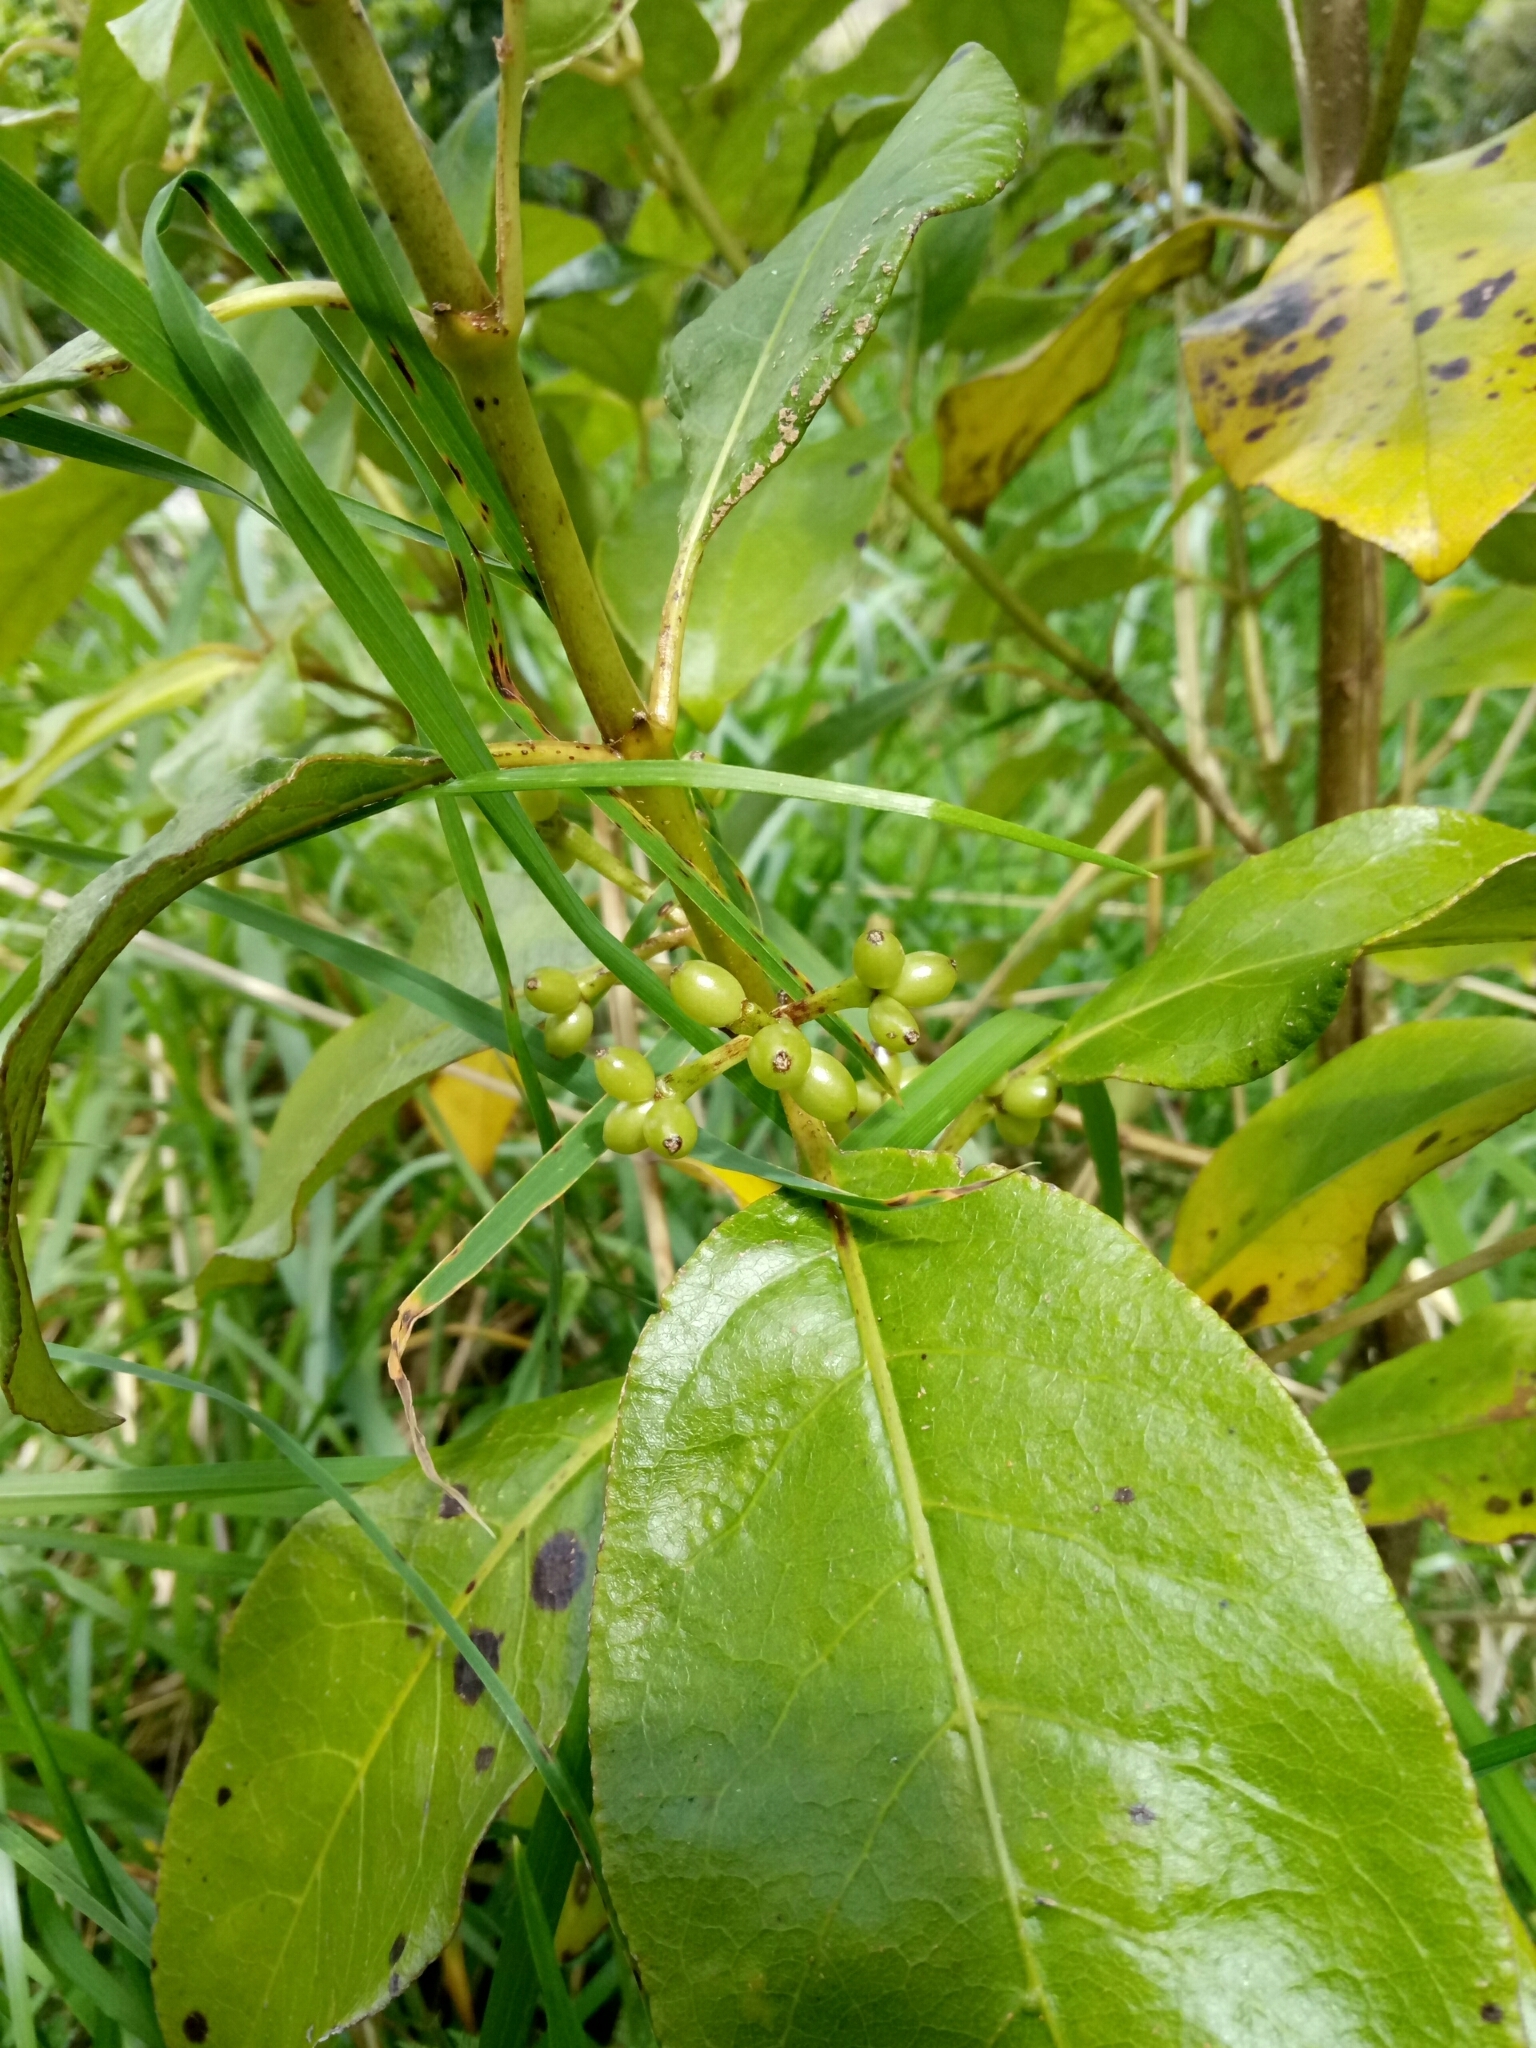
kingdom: Plantae
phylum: Tracheophyta
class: Magnoliopsida
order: Gentianales
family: Rubiaceae
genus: Coprosma
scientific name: Coprosma autumnalis
